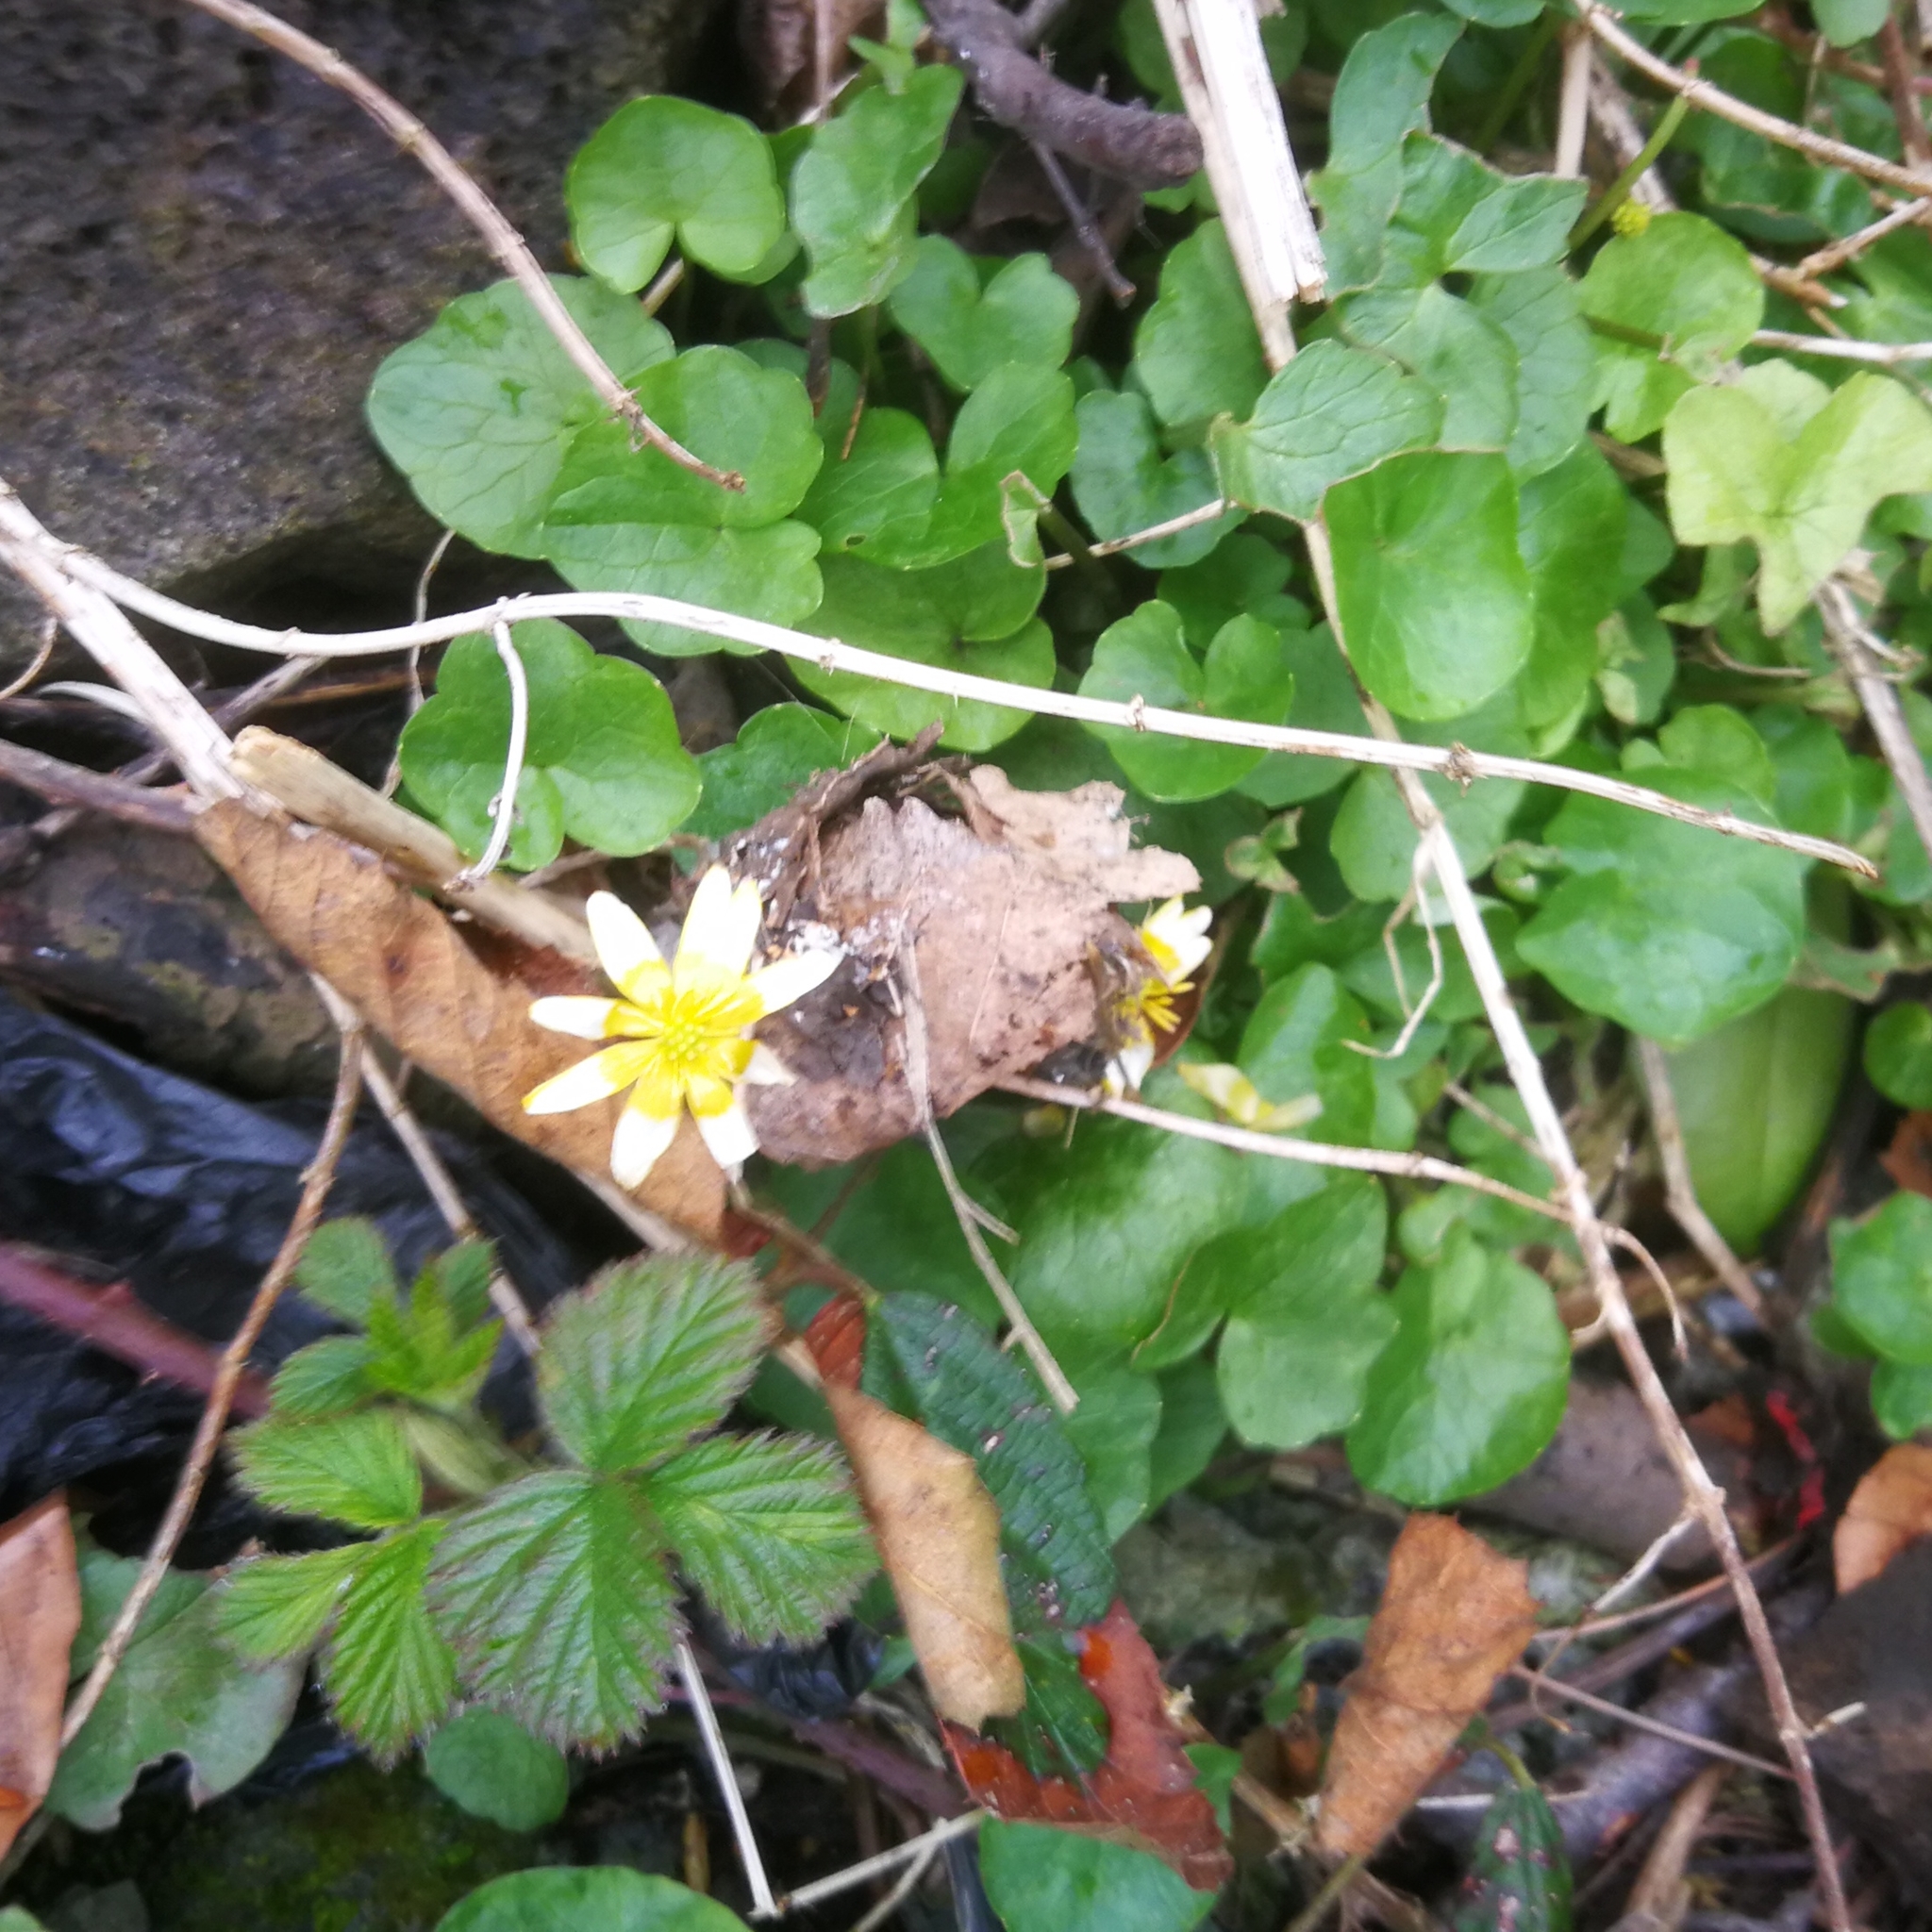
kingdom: Plantae
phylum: Tracheophyta
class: Magnoliopsida
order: Ranunculales
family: Ranunculaceae
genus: Ficaria
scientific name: Ficaria verna
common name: Lesser celandine
